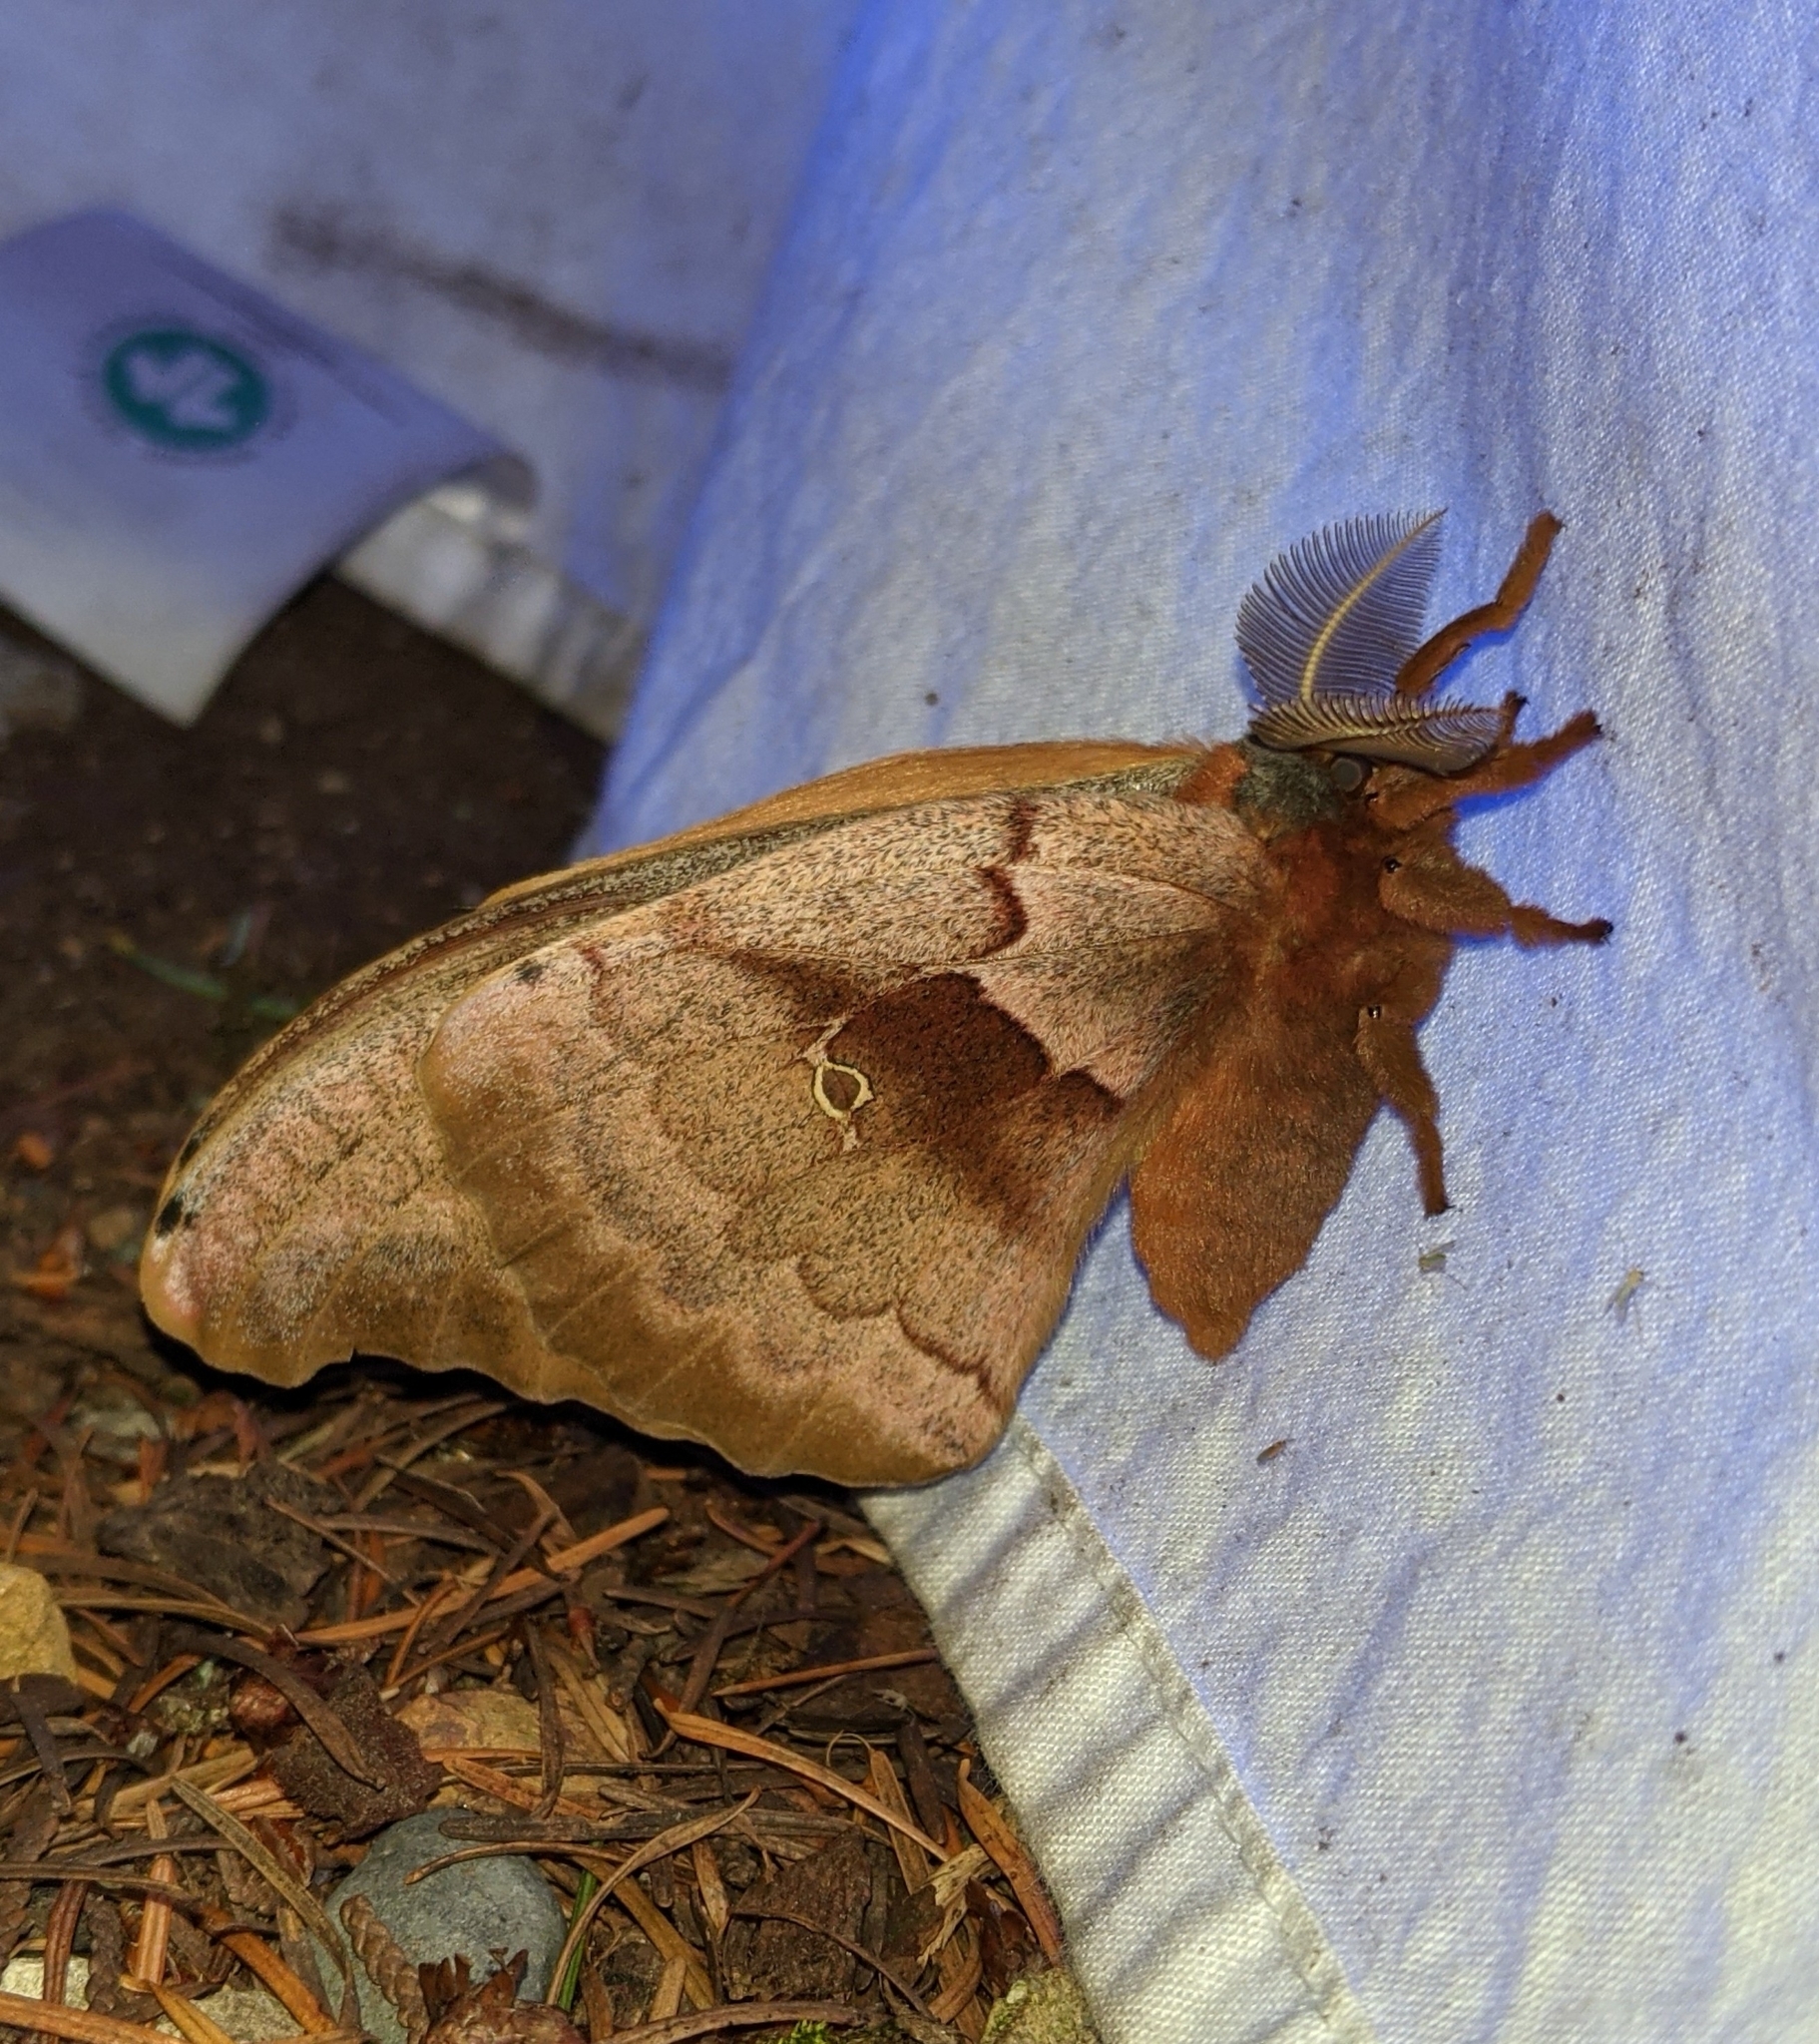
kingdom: Animalia
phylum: Arthropoda
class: Insecta
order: Lepidoptera
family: Saturniidae
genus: Antheraea
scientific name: Antheraea polyphemus
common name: Polyphemus moth
